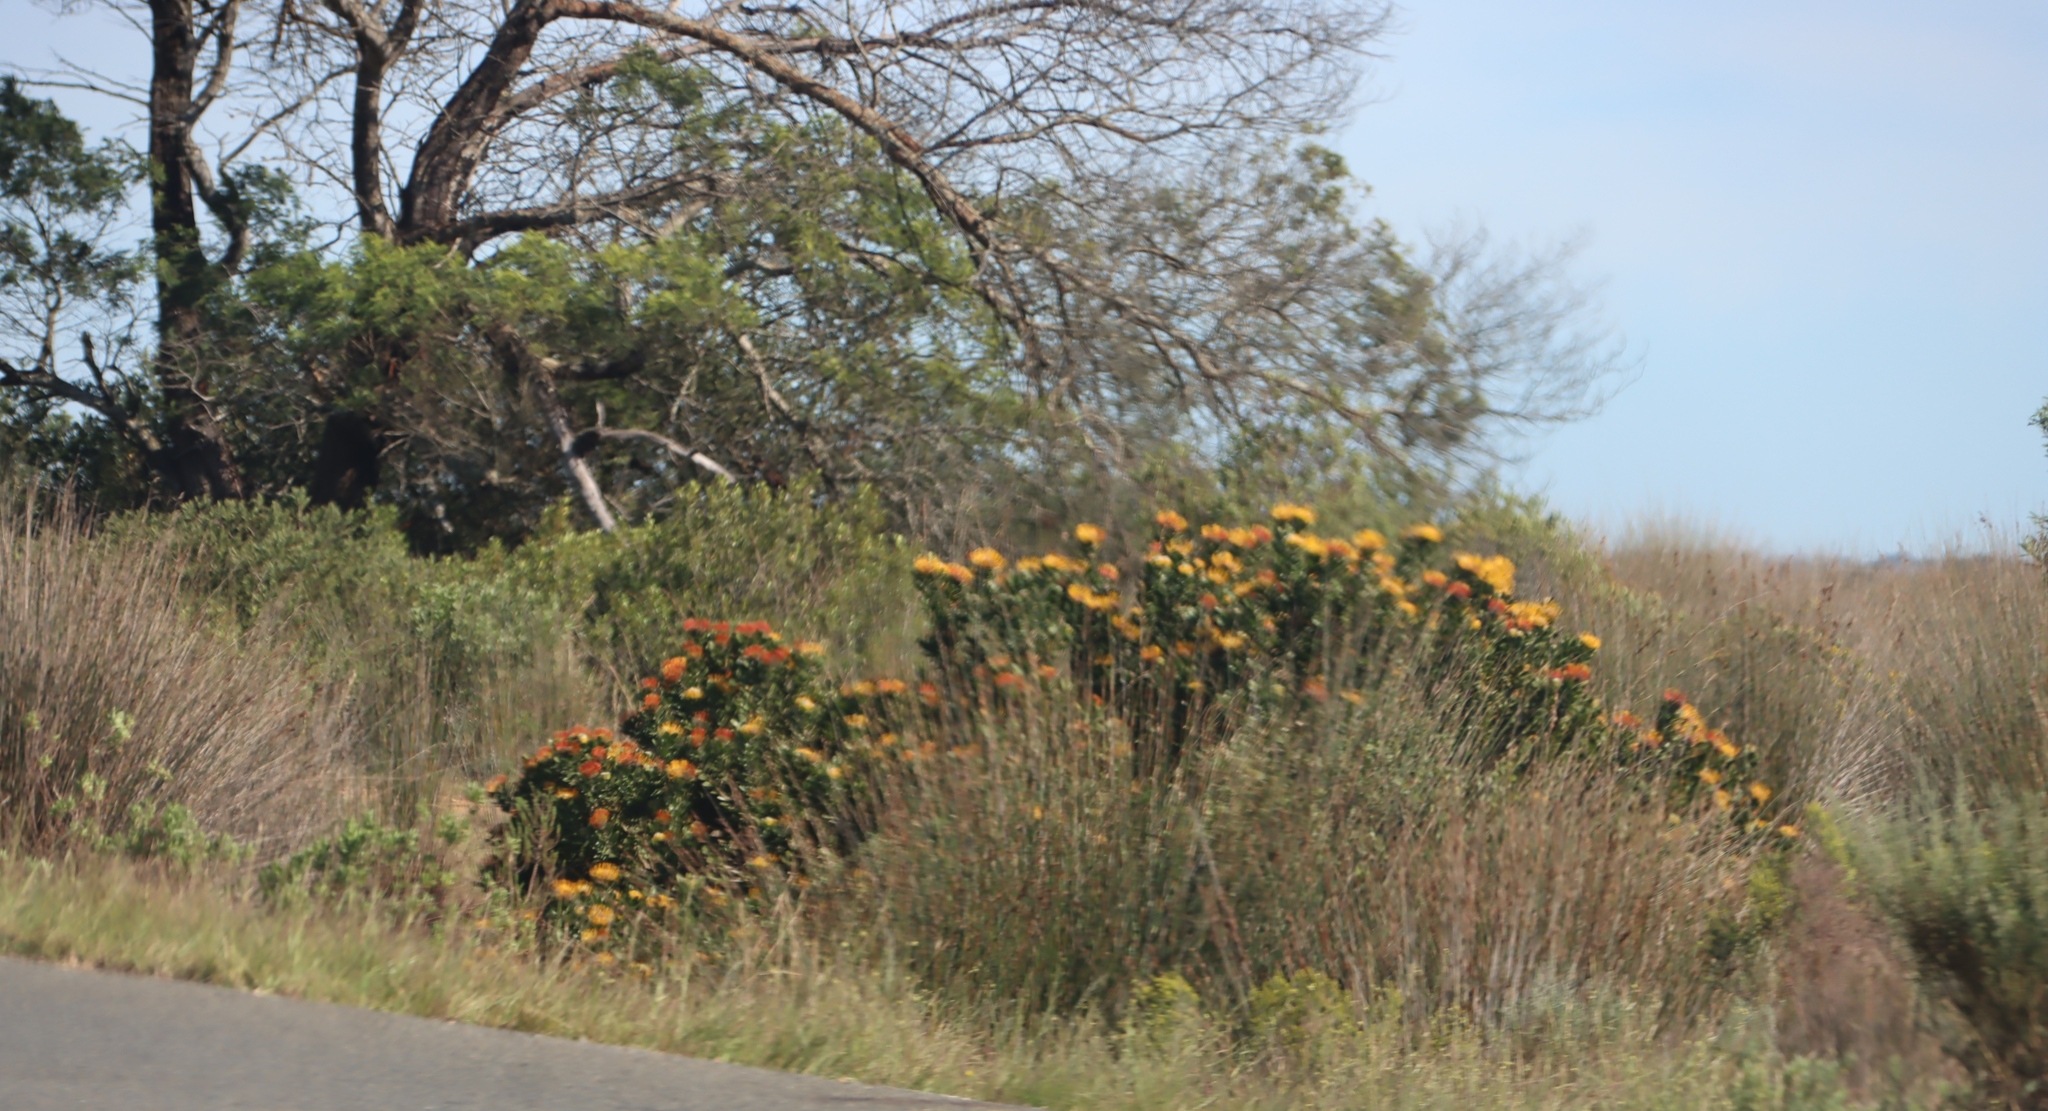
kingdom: Plantae
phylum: Tracheophyta
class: Magnoliopsida
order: Proteales
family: Proteaceae
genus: Leucospermum
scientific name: Leucospermum praecox
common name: Mossel bay pincushion
